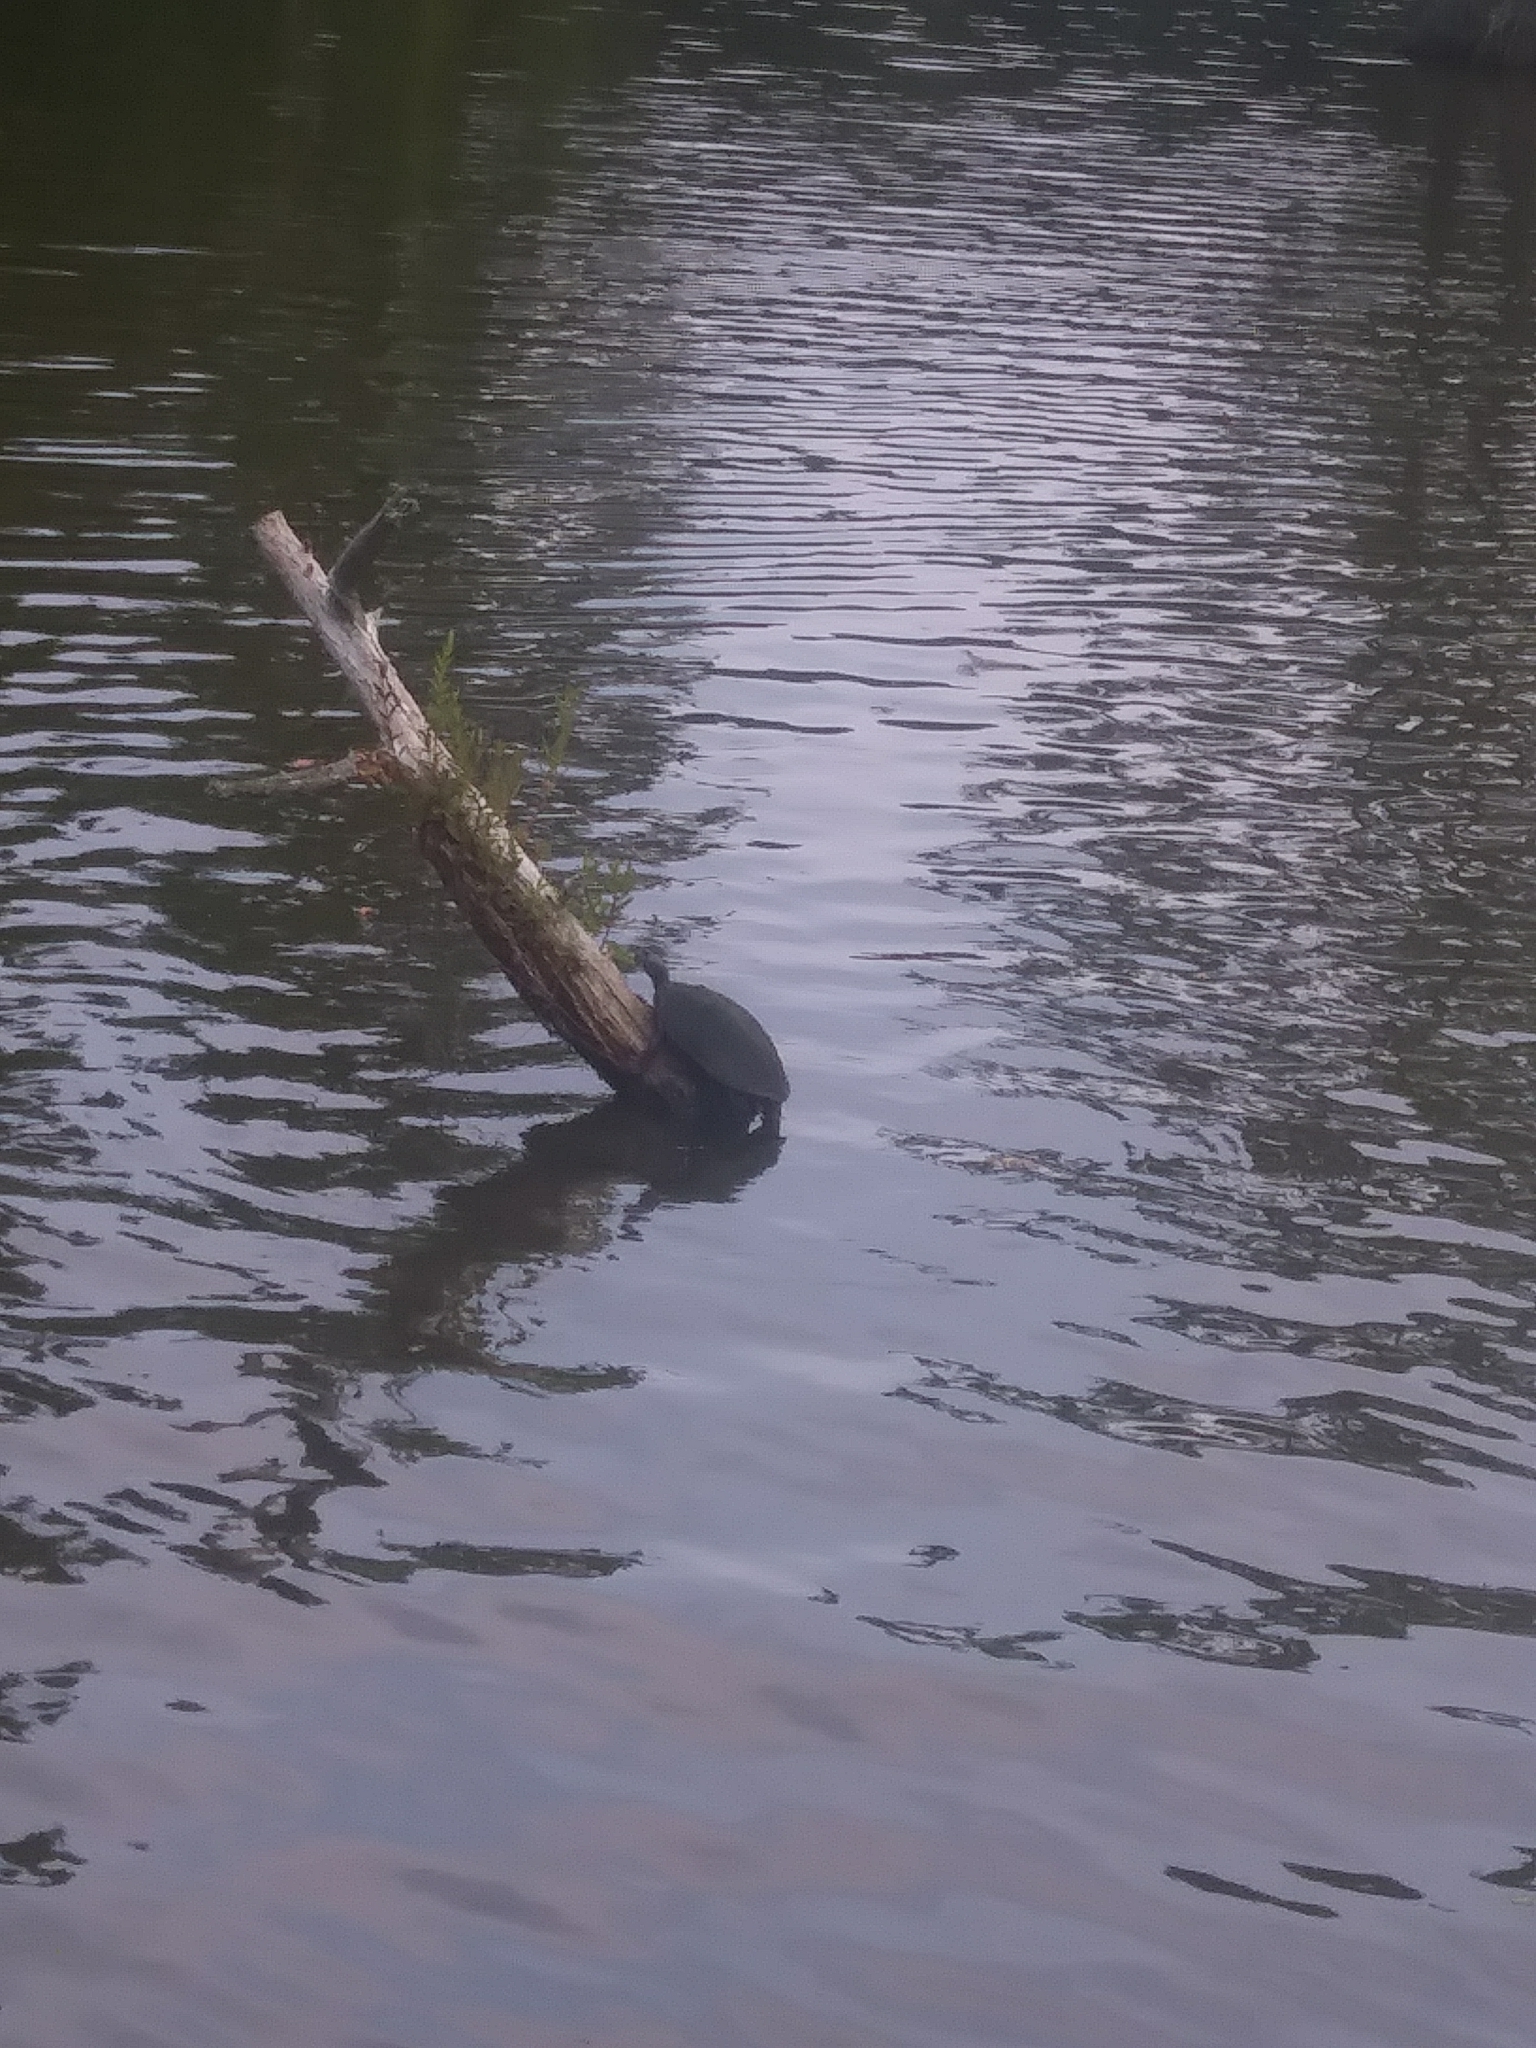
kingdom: Animalia
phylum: Chordata
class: Testudines
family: Emydidae
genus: Pseudemys
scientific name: Pseudemys rubriventris
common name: American red-bellied turtle
